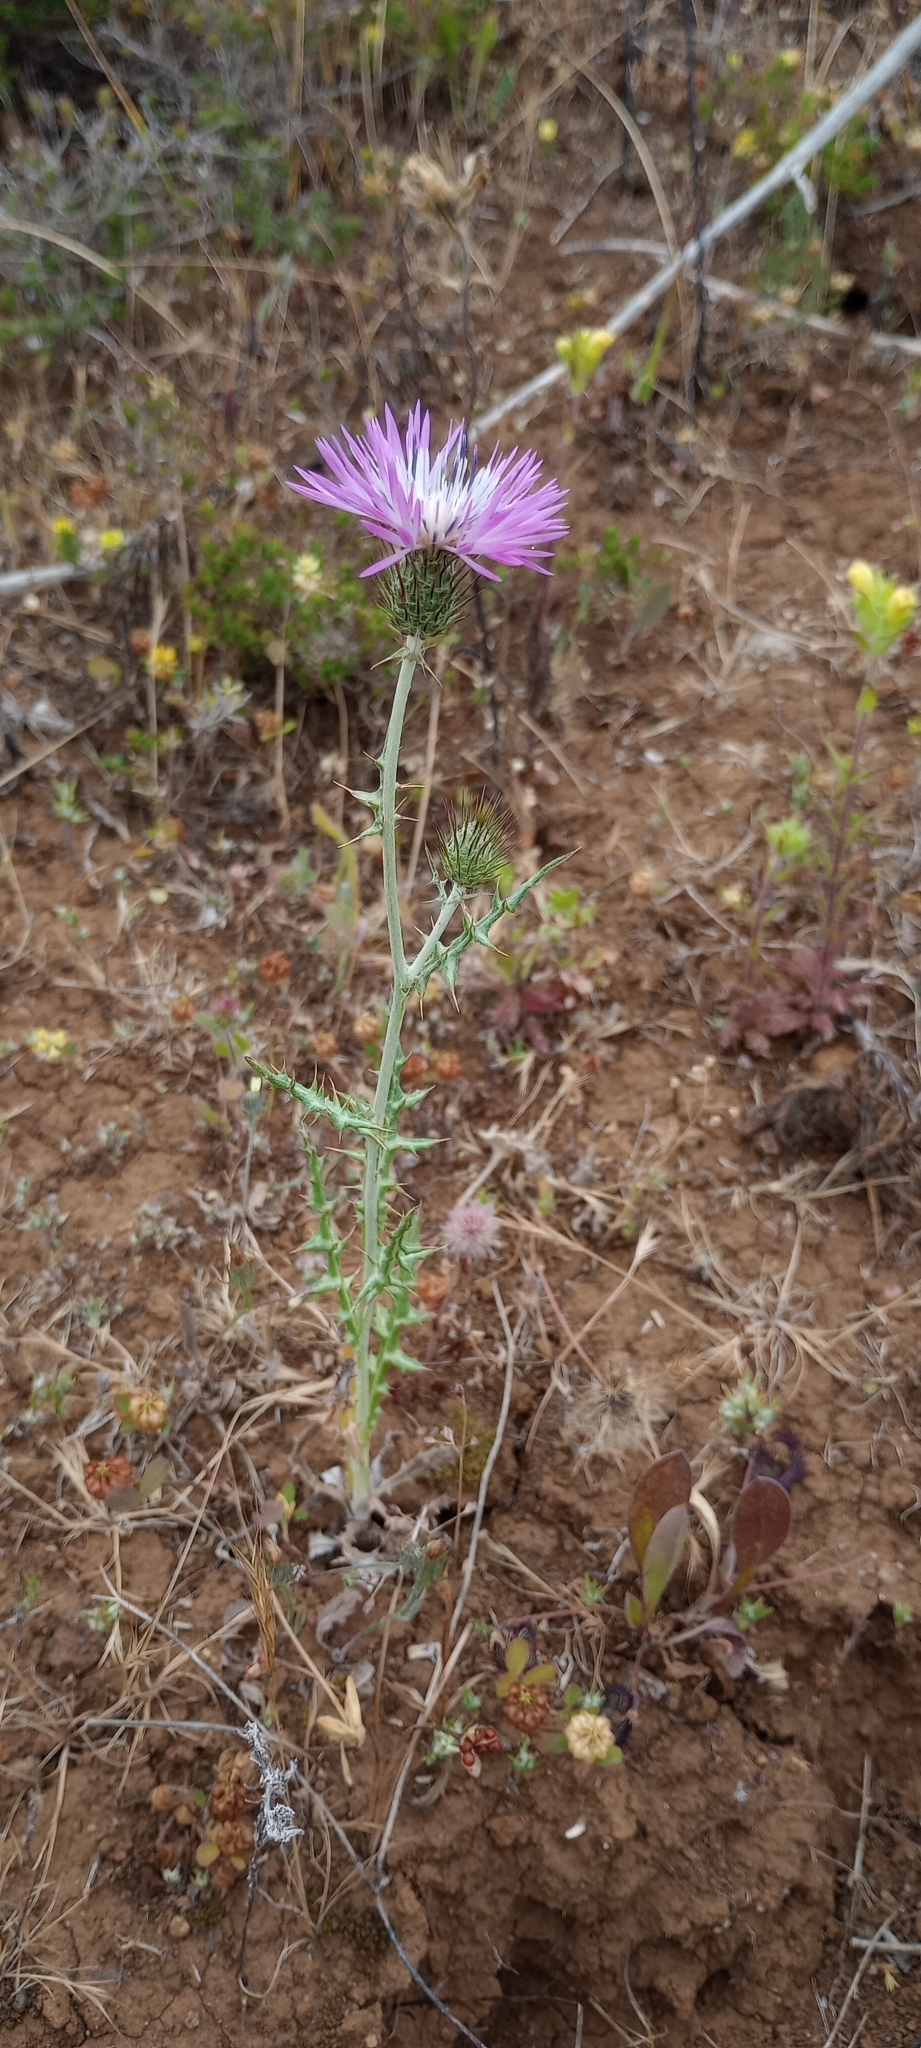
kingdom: Plantae
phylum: Tracheophyta
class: Magnoliopsida
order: Asterales
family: Asteraceae
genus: Galactites
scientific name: Galactites tomentosa
